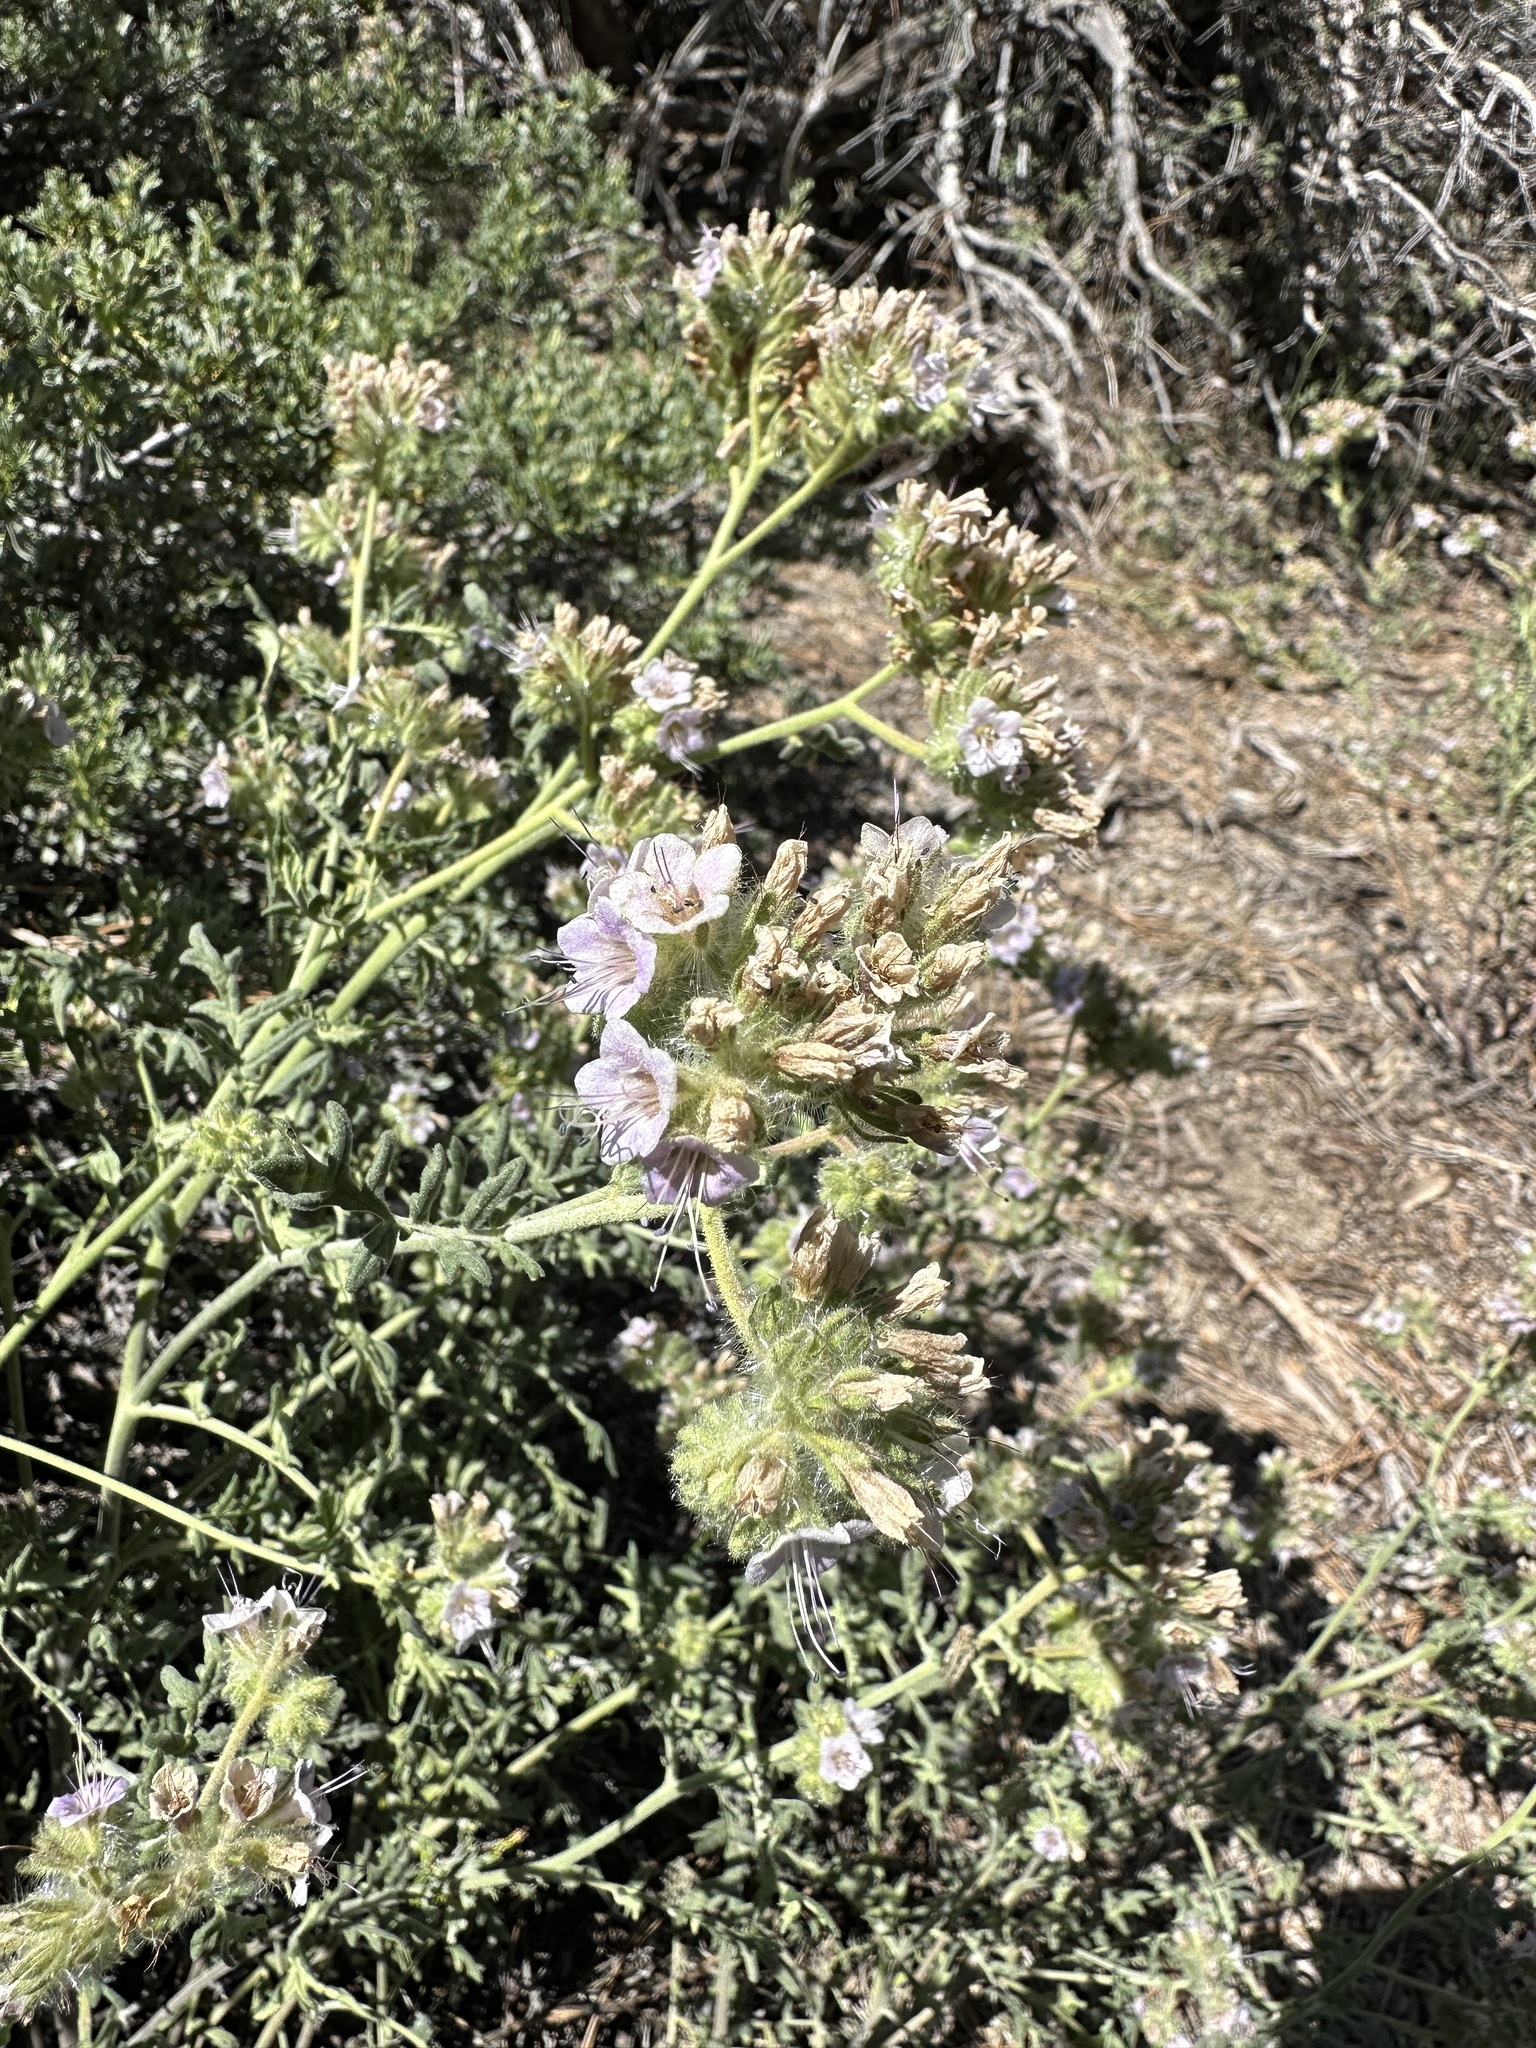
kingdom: Plantae
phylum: Tracheophyta
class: Magnoliopsida
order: Boraginales
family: Hydrophyllaceae
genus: Phacelia
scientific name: Phacelia ramosissima
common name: Branching phacelia
